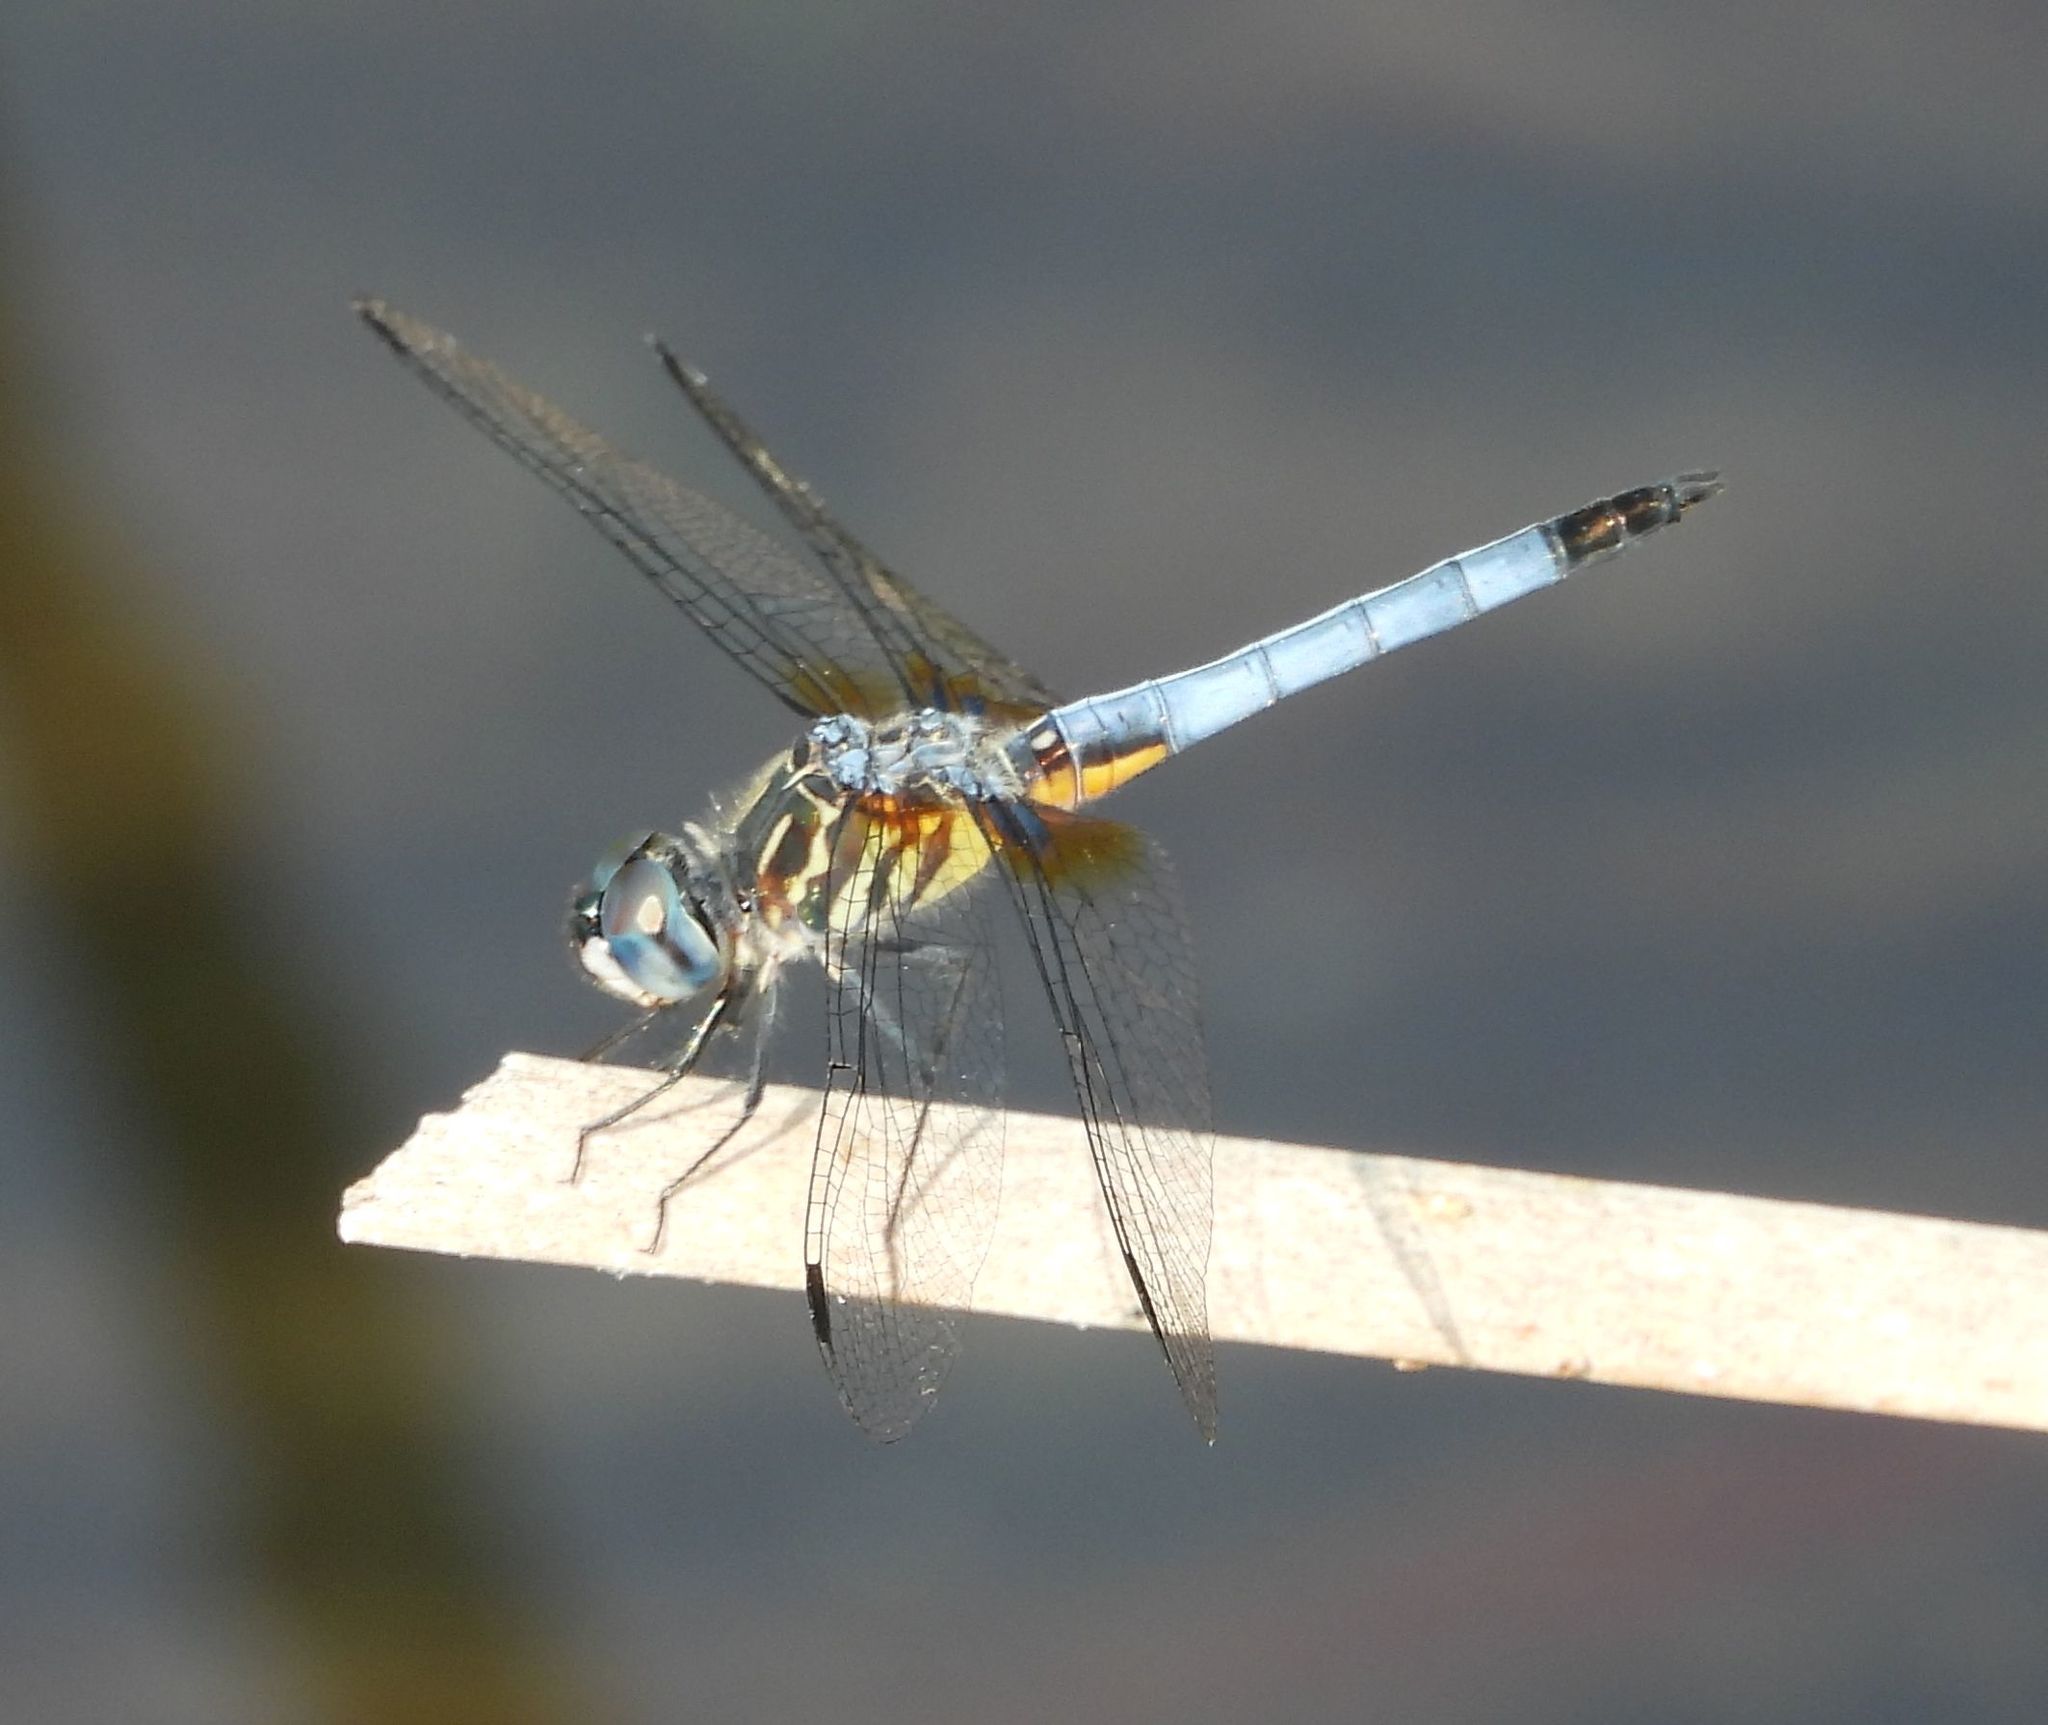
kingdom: Animalia
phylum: Arthropoda
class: Insecta
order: Odonata
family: Libellulidae
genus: Pachydiplax
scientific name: Pachydiplax longipennis
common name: Blue dasher
